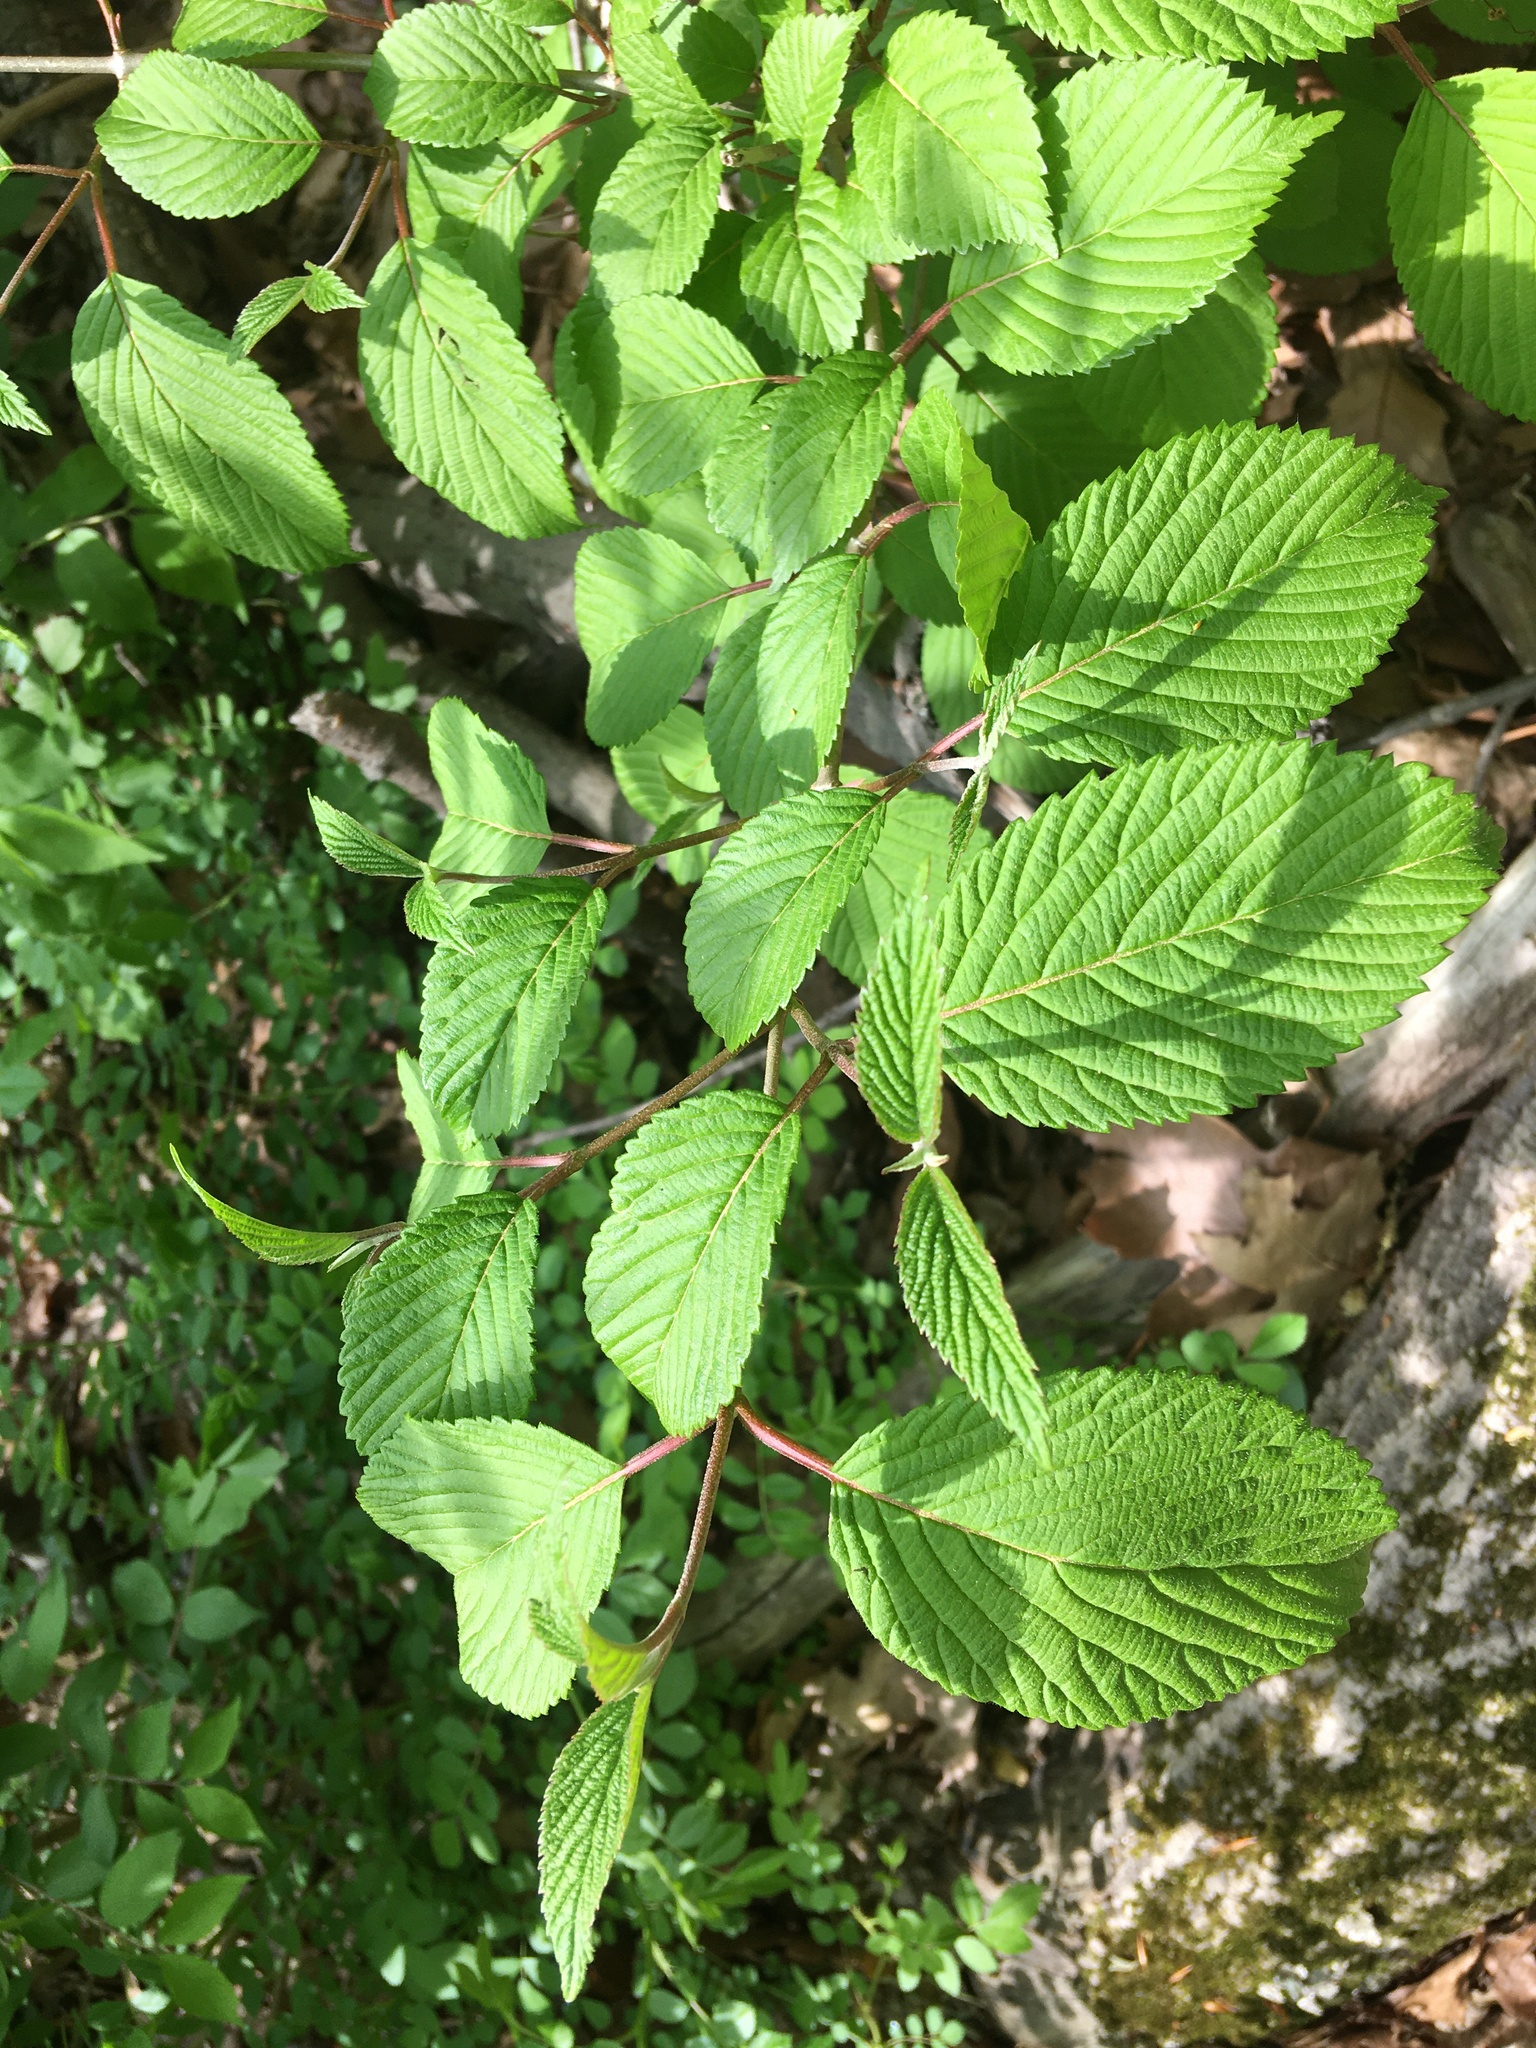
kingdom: Plantae
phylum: Tracheophyta
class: Magnoliopsida
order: Dipsacales
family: Viburnaceae
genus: Viburnum
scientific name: Viburnum plicatum
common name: Japanese snowball
